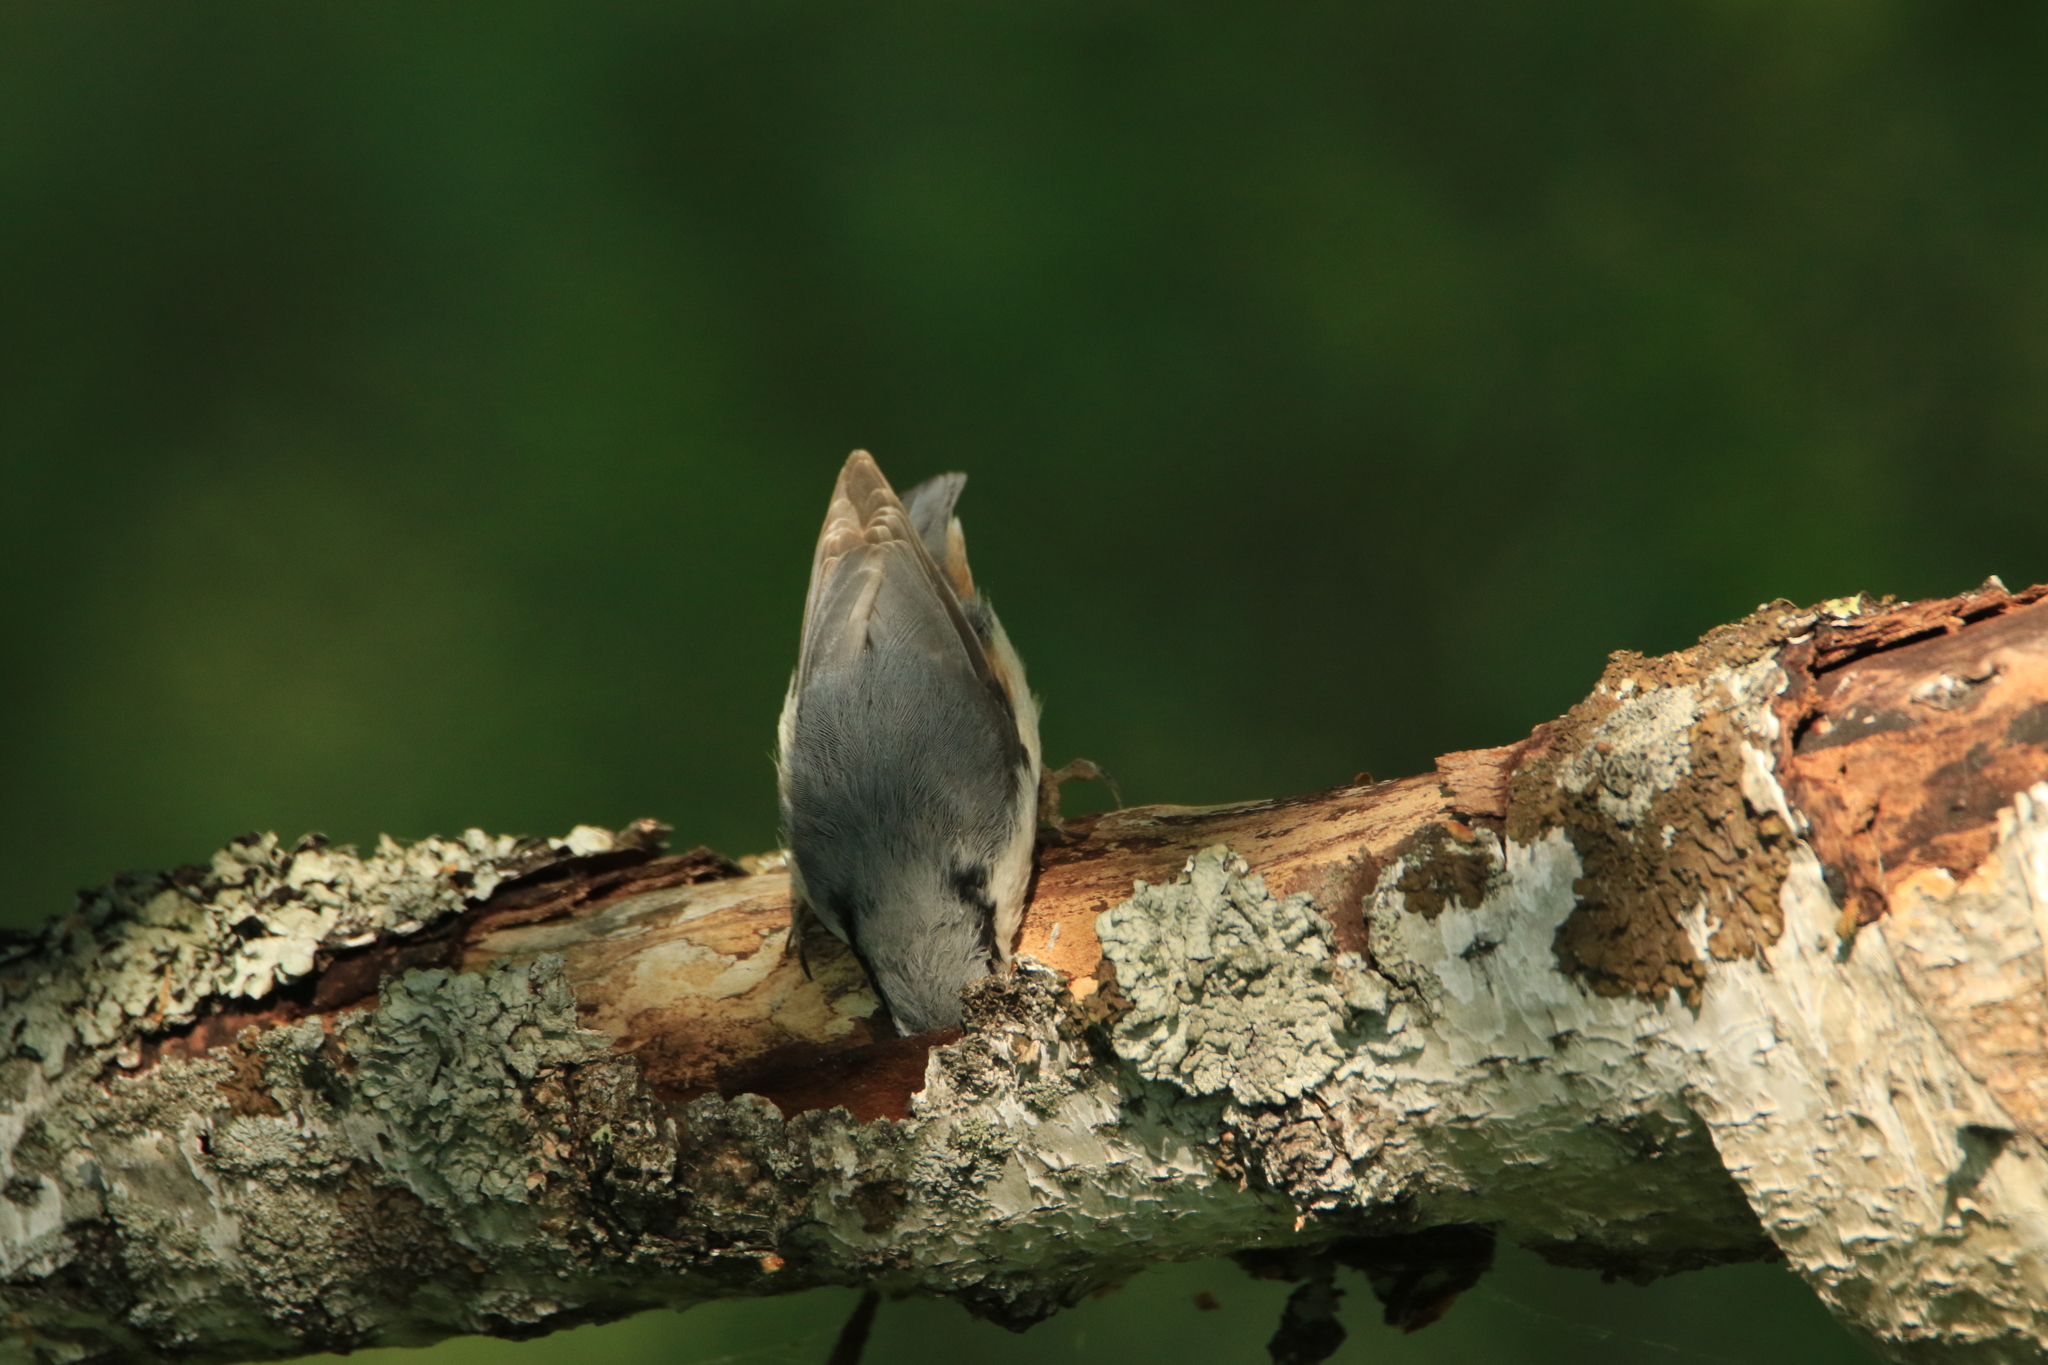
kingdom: Animalia
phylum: Chordata
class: Aves
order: Passeriformes
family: Sittidae
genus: Sitta
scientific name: Sitta europaea
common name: Eurasian nuthatch
